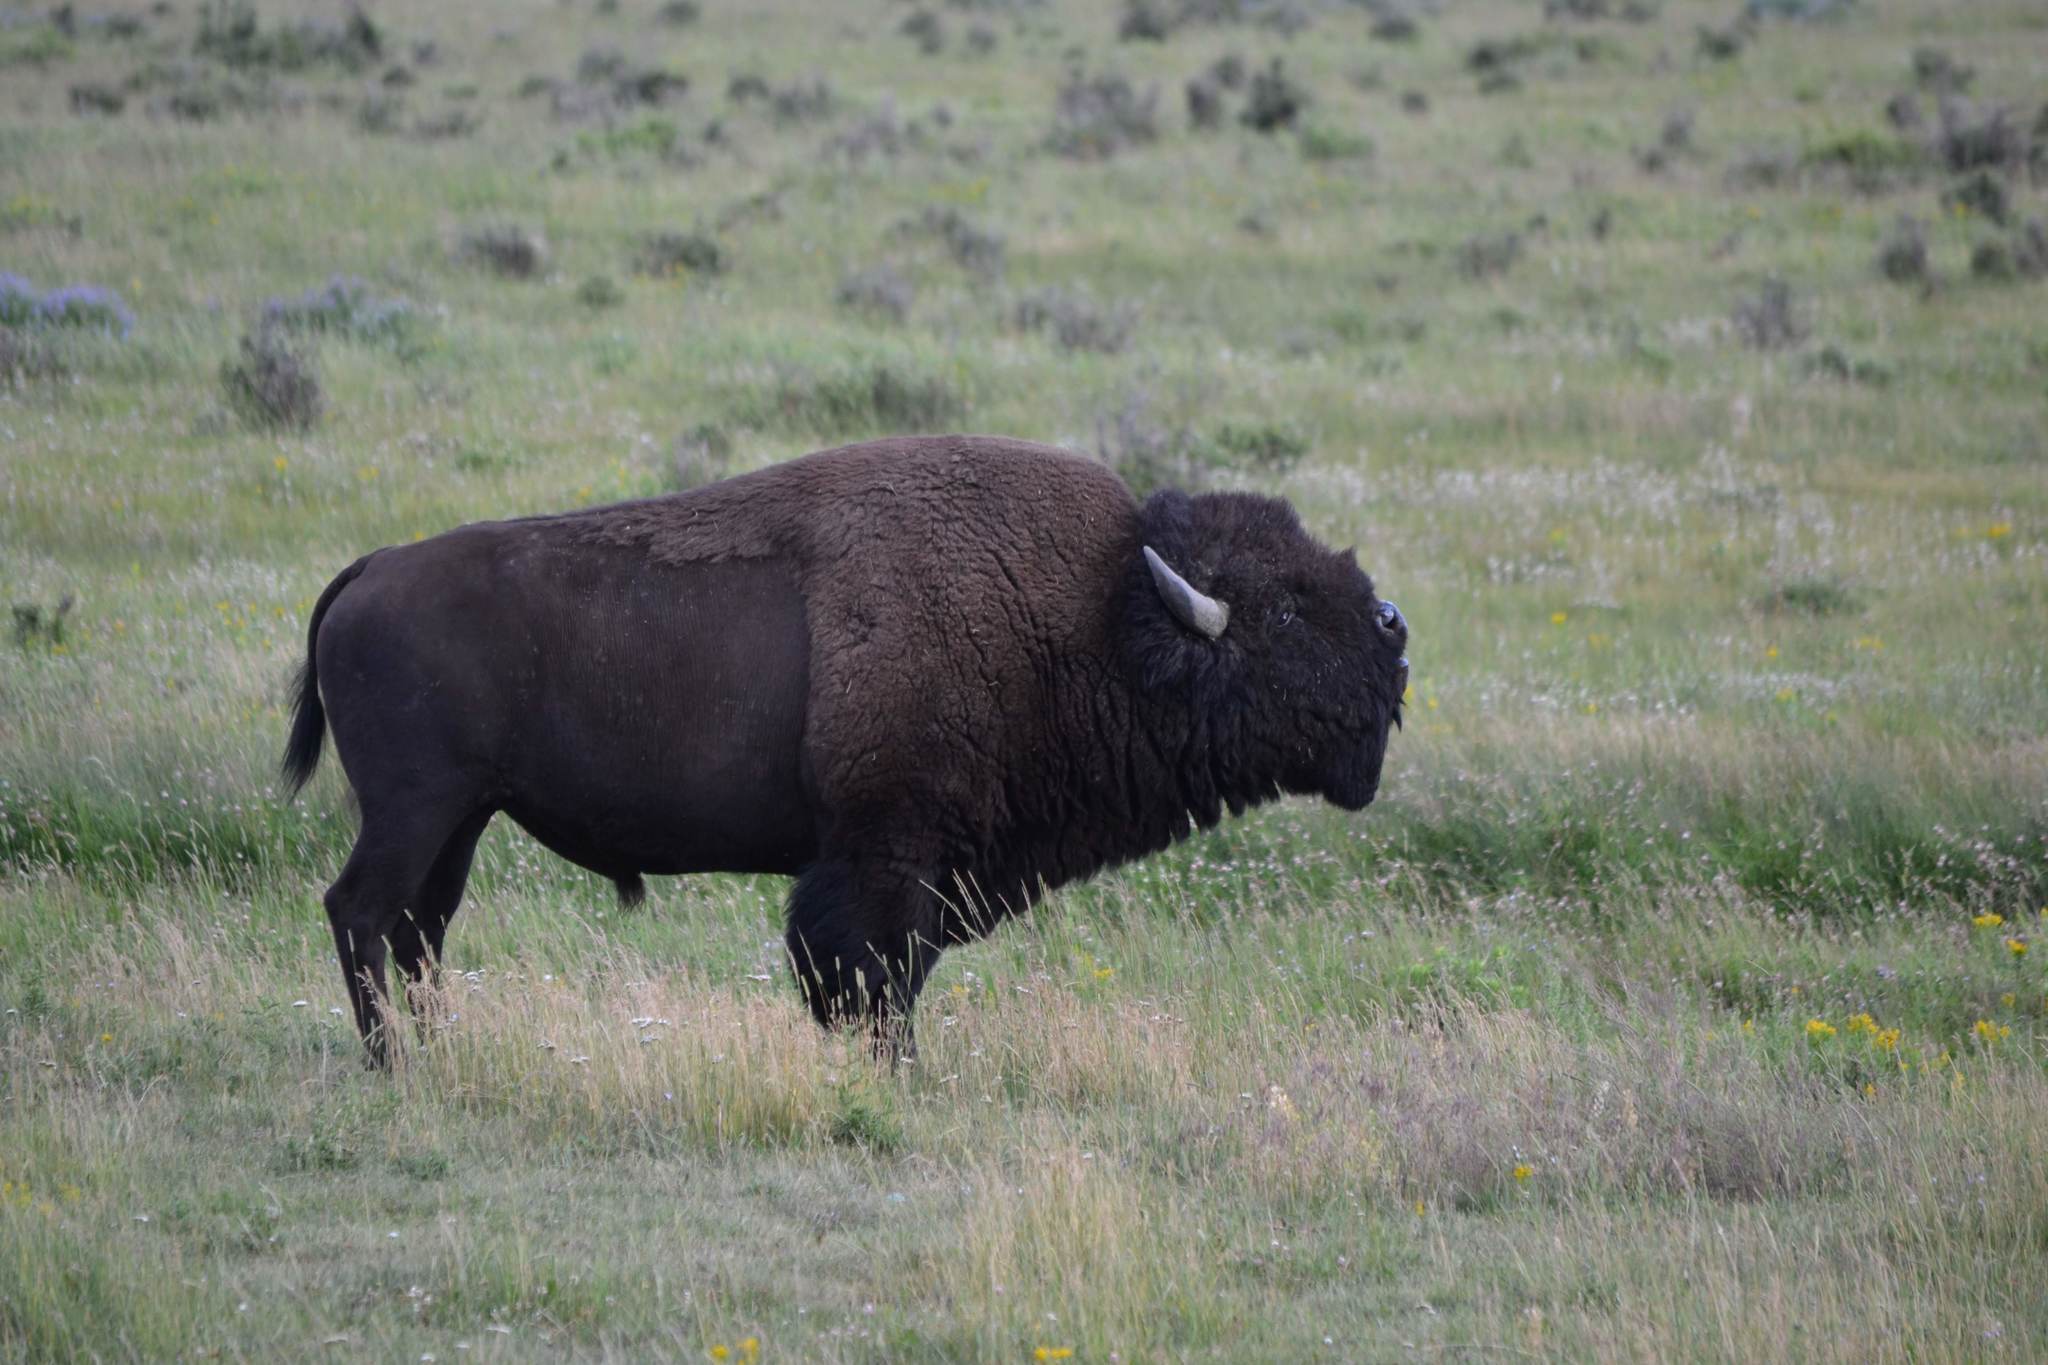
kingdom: Animalia
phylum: Chordata
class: Mammalia
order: Artiodactyla
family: Bovidae
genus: Bison
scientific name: Bison bison
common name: American bison
